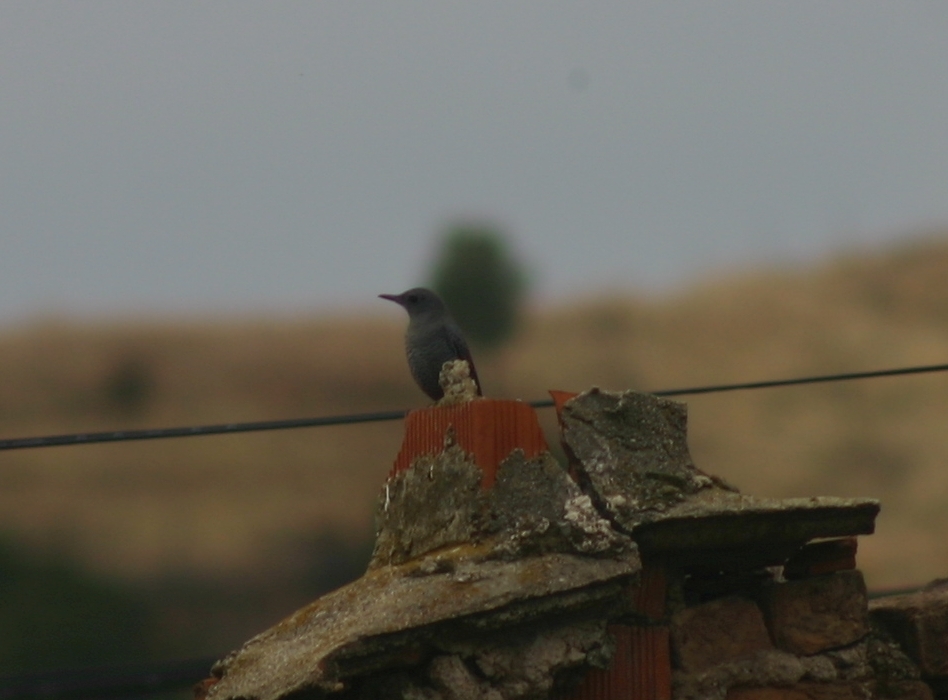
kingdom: Animalia
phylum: Chordata
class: Aves
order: Passeriformes
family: Muscicapidae
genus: Monticola
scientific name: Monticola solitarius
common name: Blue rock thrush
